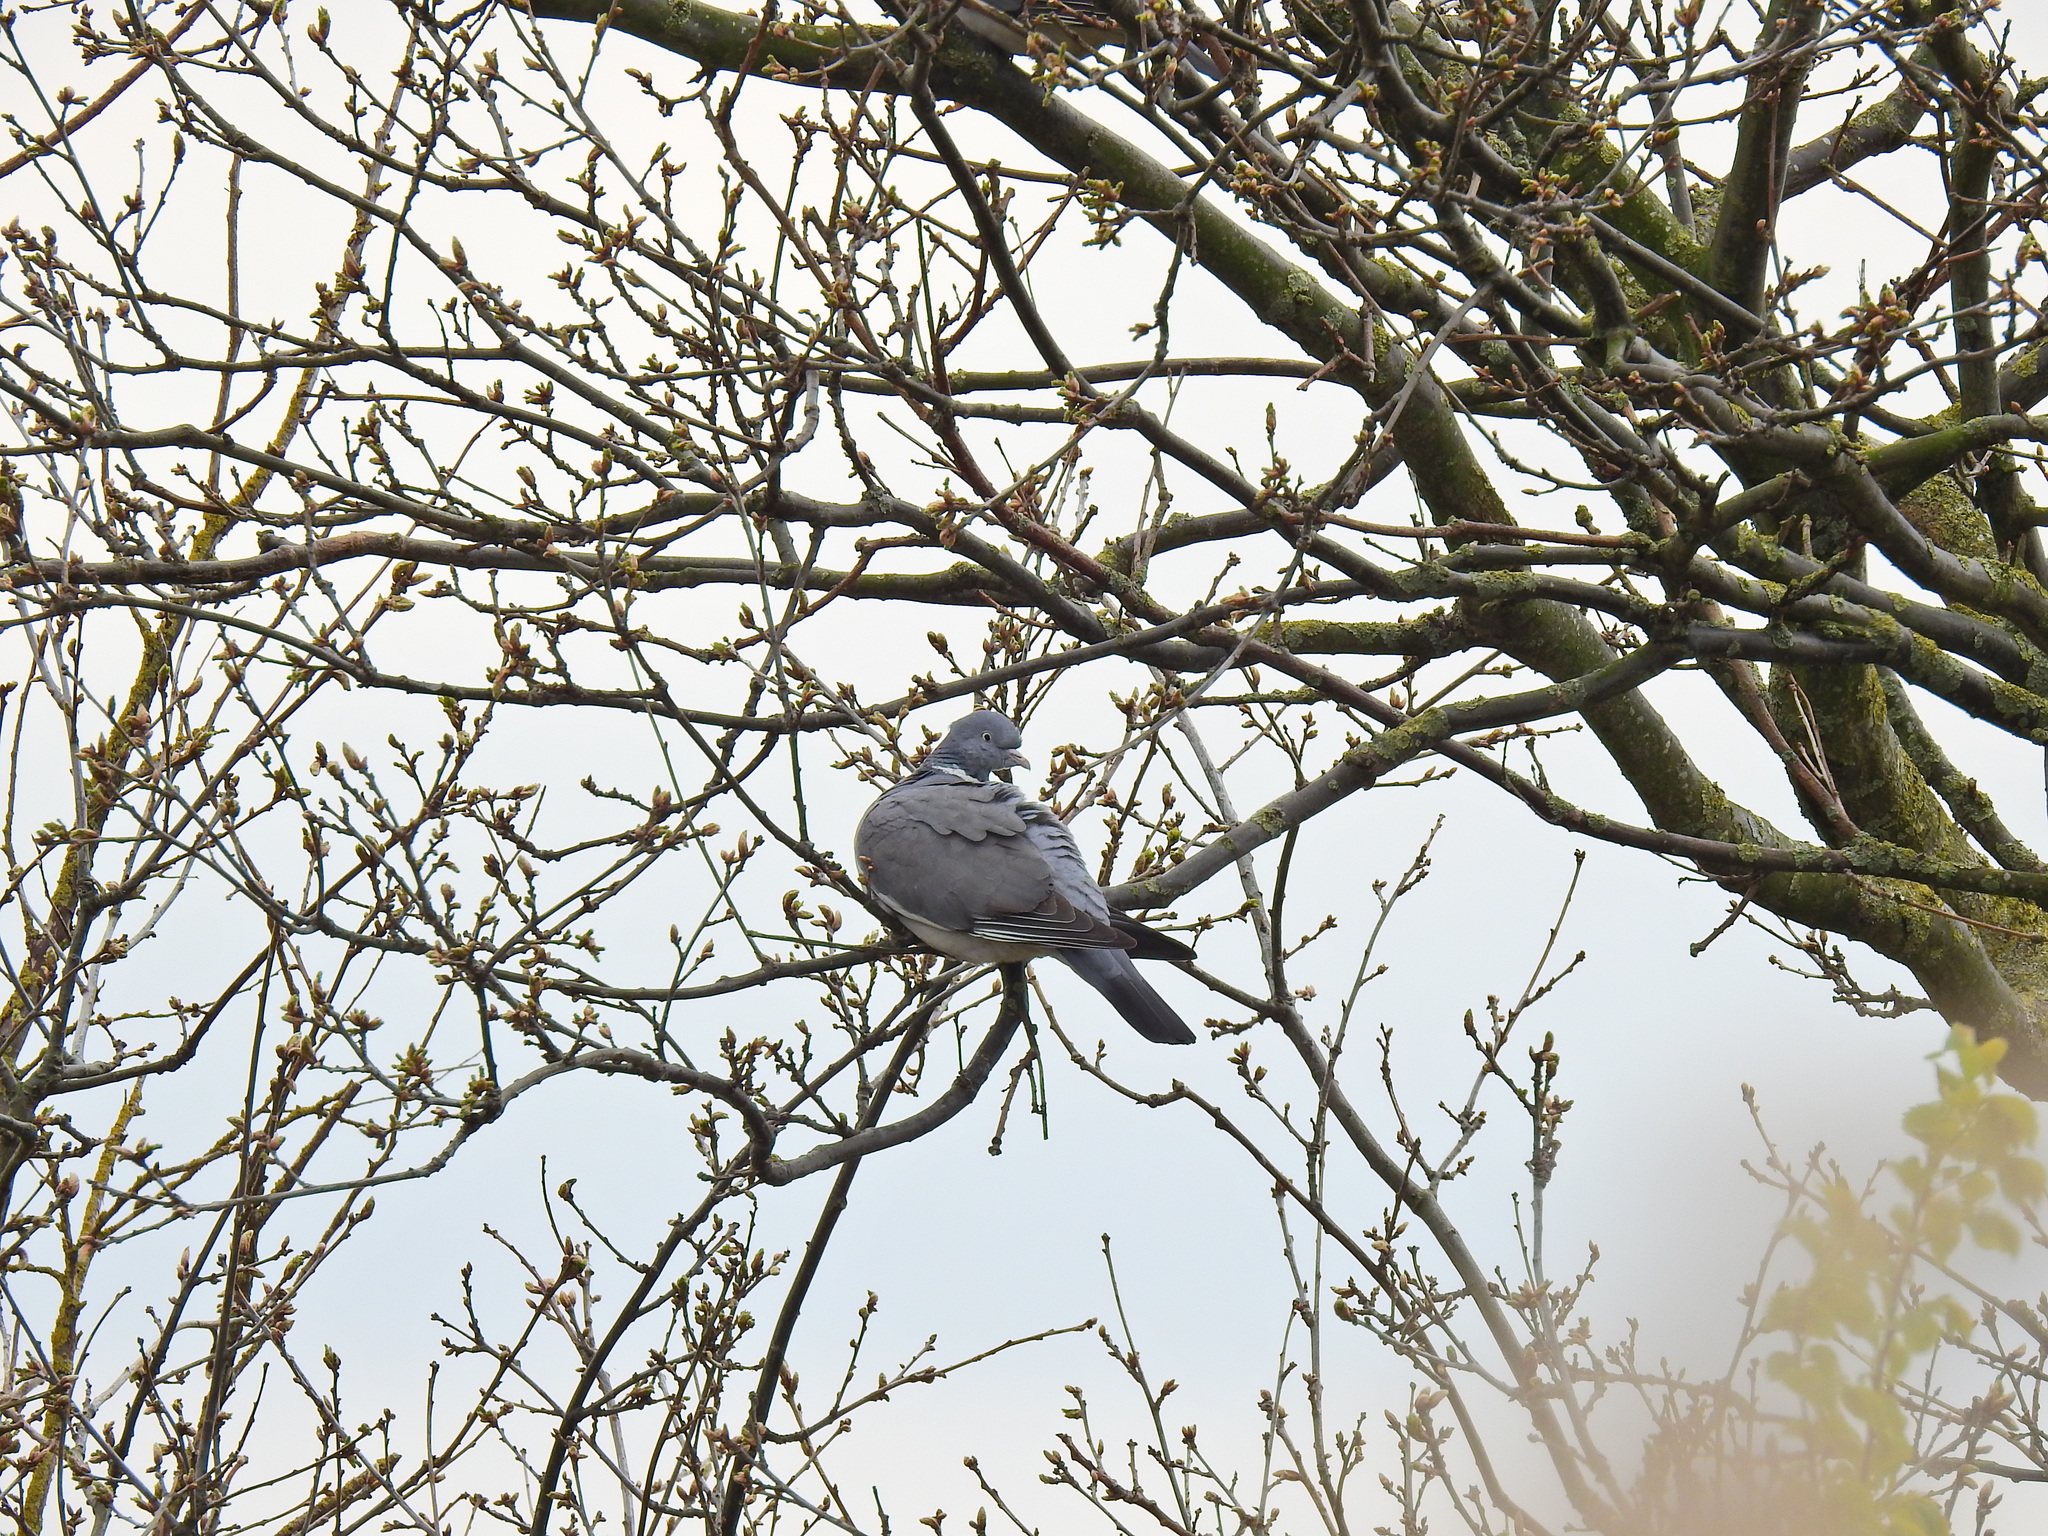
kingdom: Animalia
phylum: Chordata
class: Aves
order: Columbiformes
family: Columbidae
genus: Columba
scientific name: Columba palumbus
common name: Common wood pigeon
